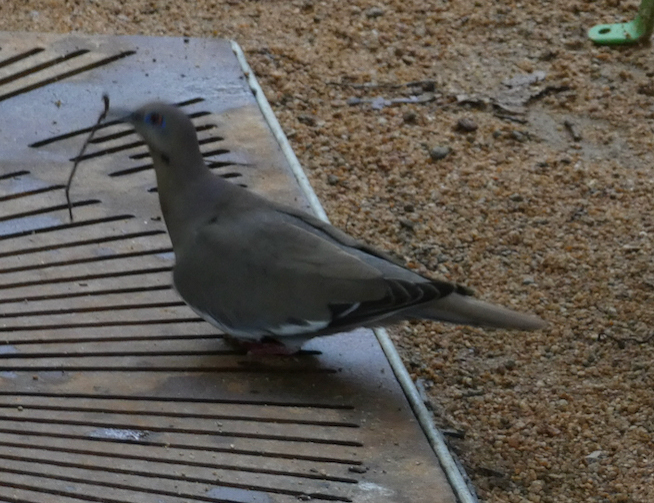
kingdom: Animalia
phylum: Chordata
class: Aves
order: Columbiformes
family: Columbidae
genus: Zenaida
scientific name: Zenaida asiatica
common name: White-winged dove
